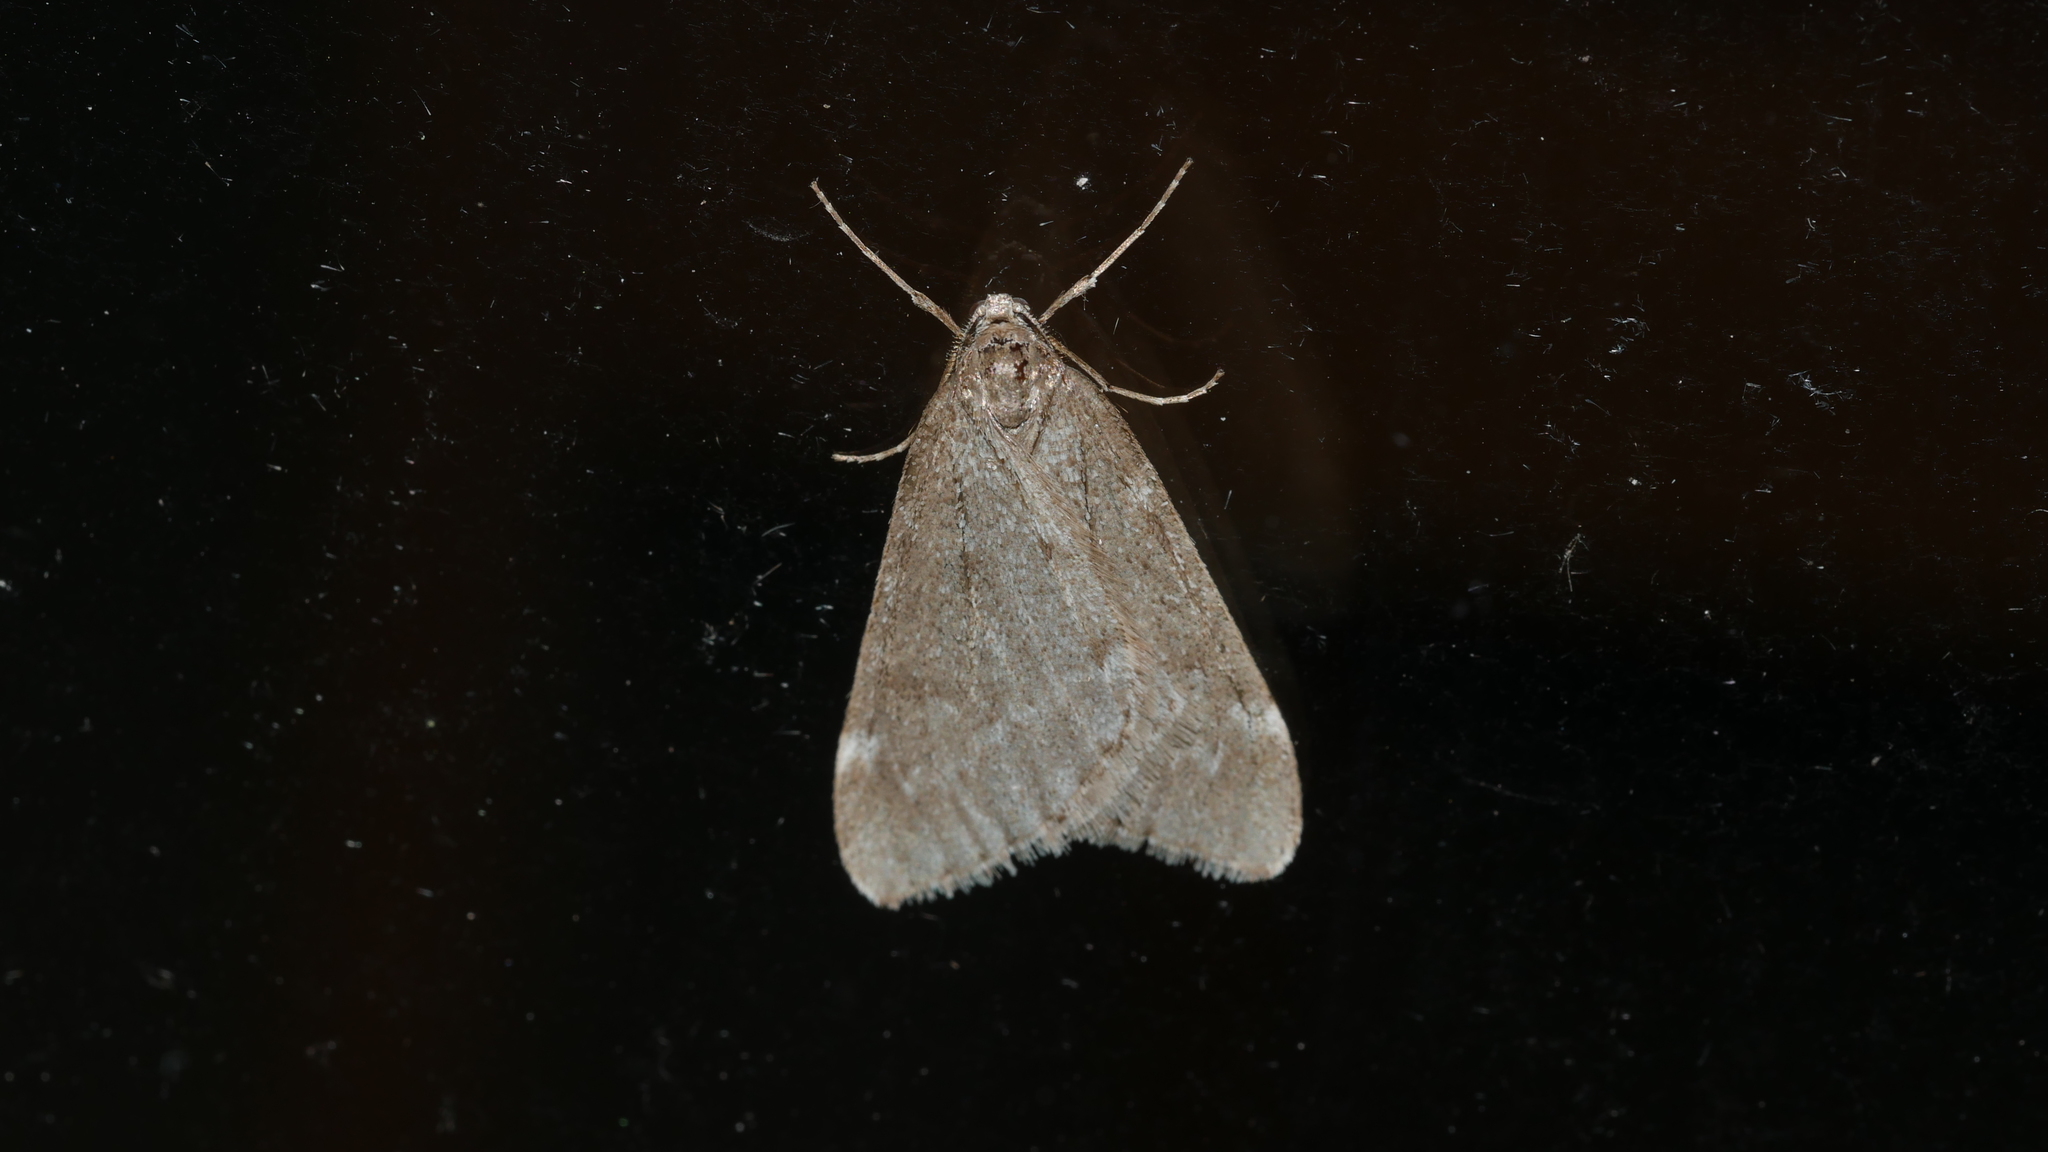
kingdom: Animalia
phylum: Arthropoda
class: Insecta
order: Lepidoptera
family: Geometridae
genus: Alsophila
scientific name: Alsophila pometaria
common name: Fall cankerworm
